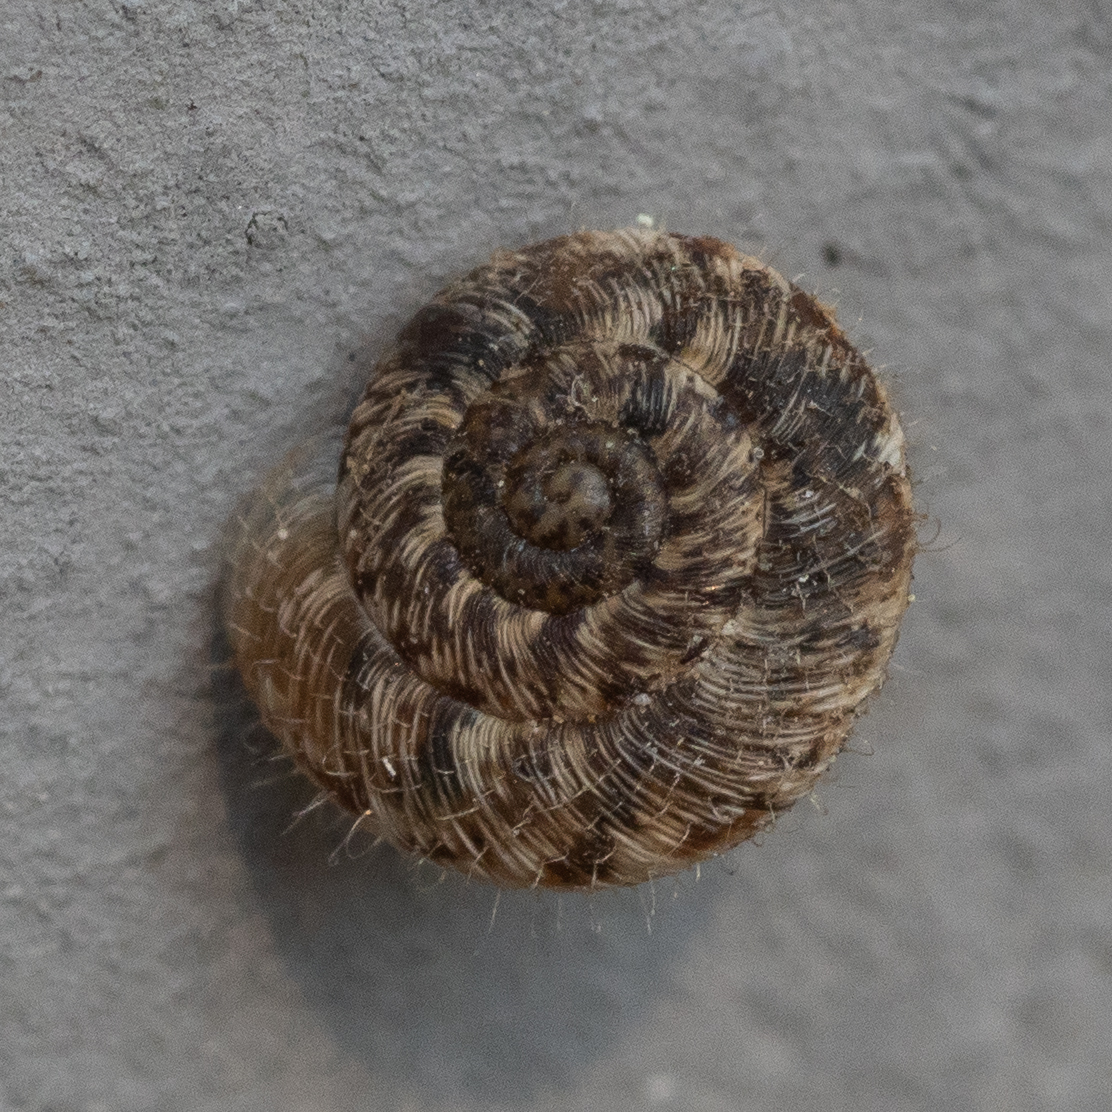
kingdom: Animalia
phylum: Mollusca
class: Gastropoda
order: Stylommatophora
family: Geomitridae
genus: Xerotricha
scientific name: Xerotricha conspurcata
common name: Snail
